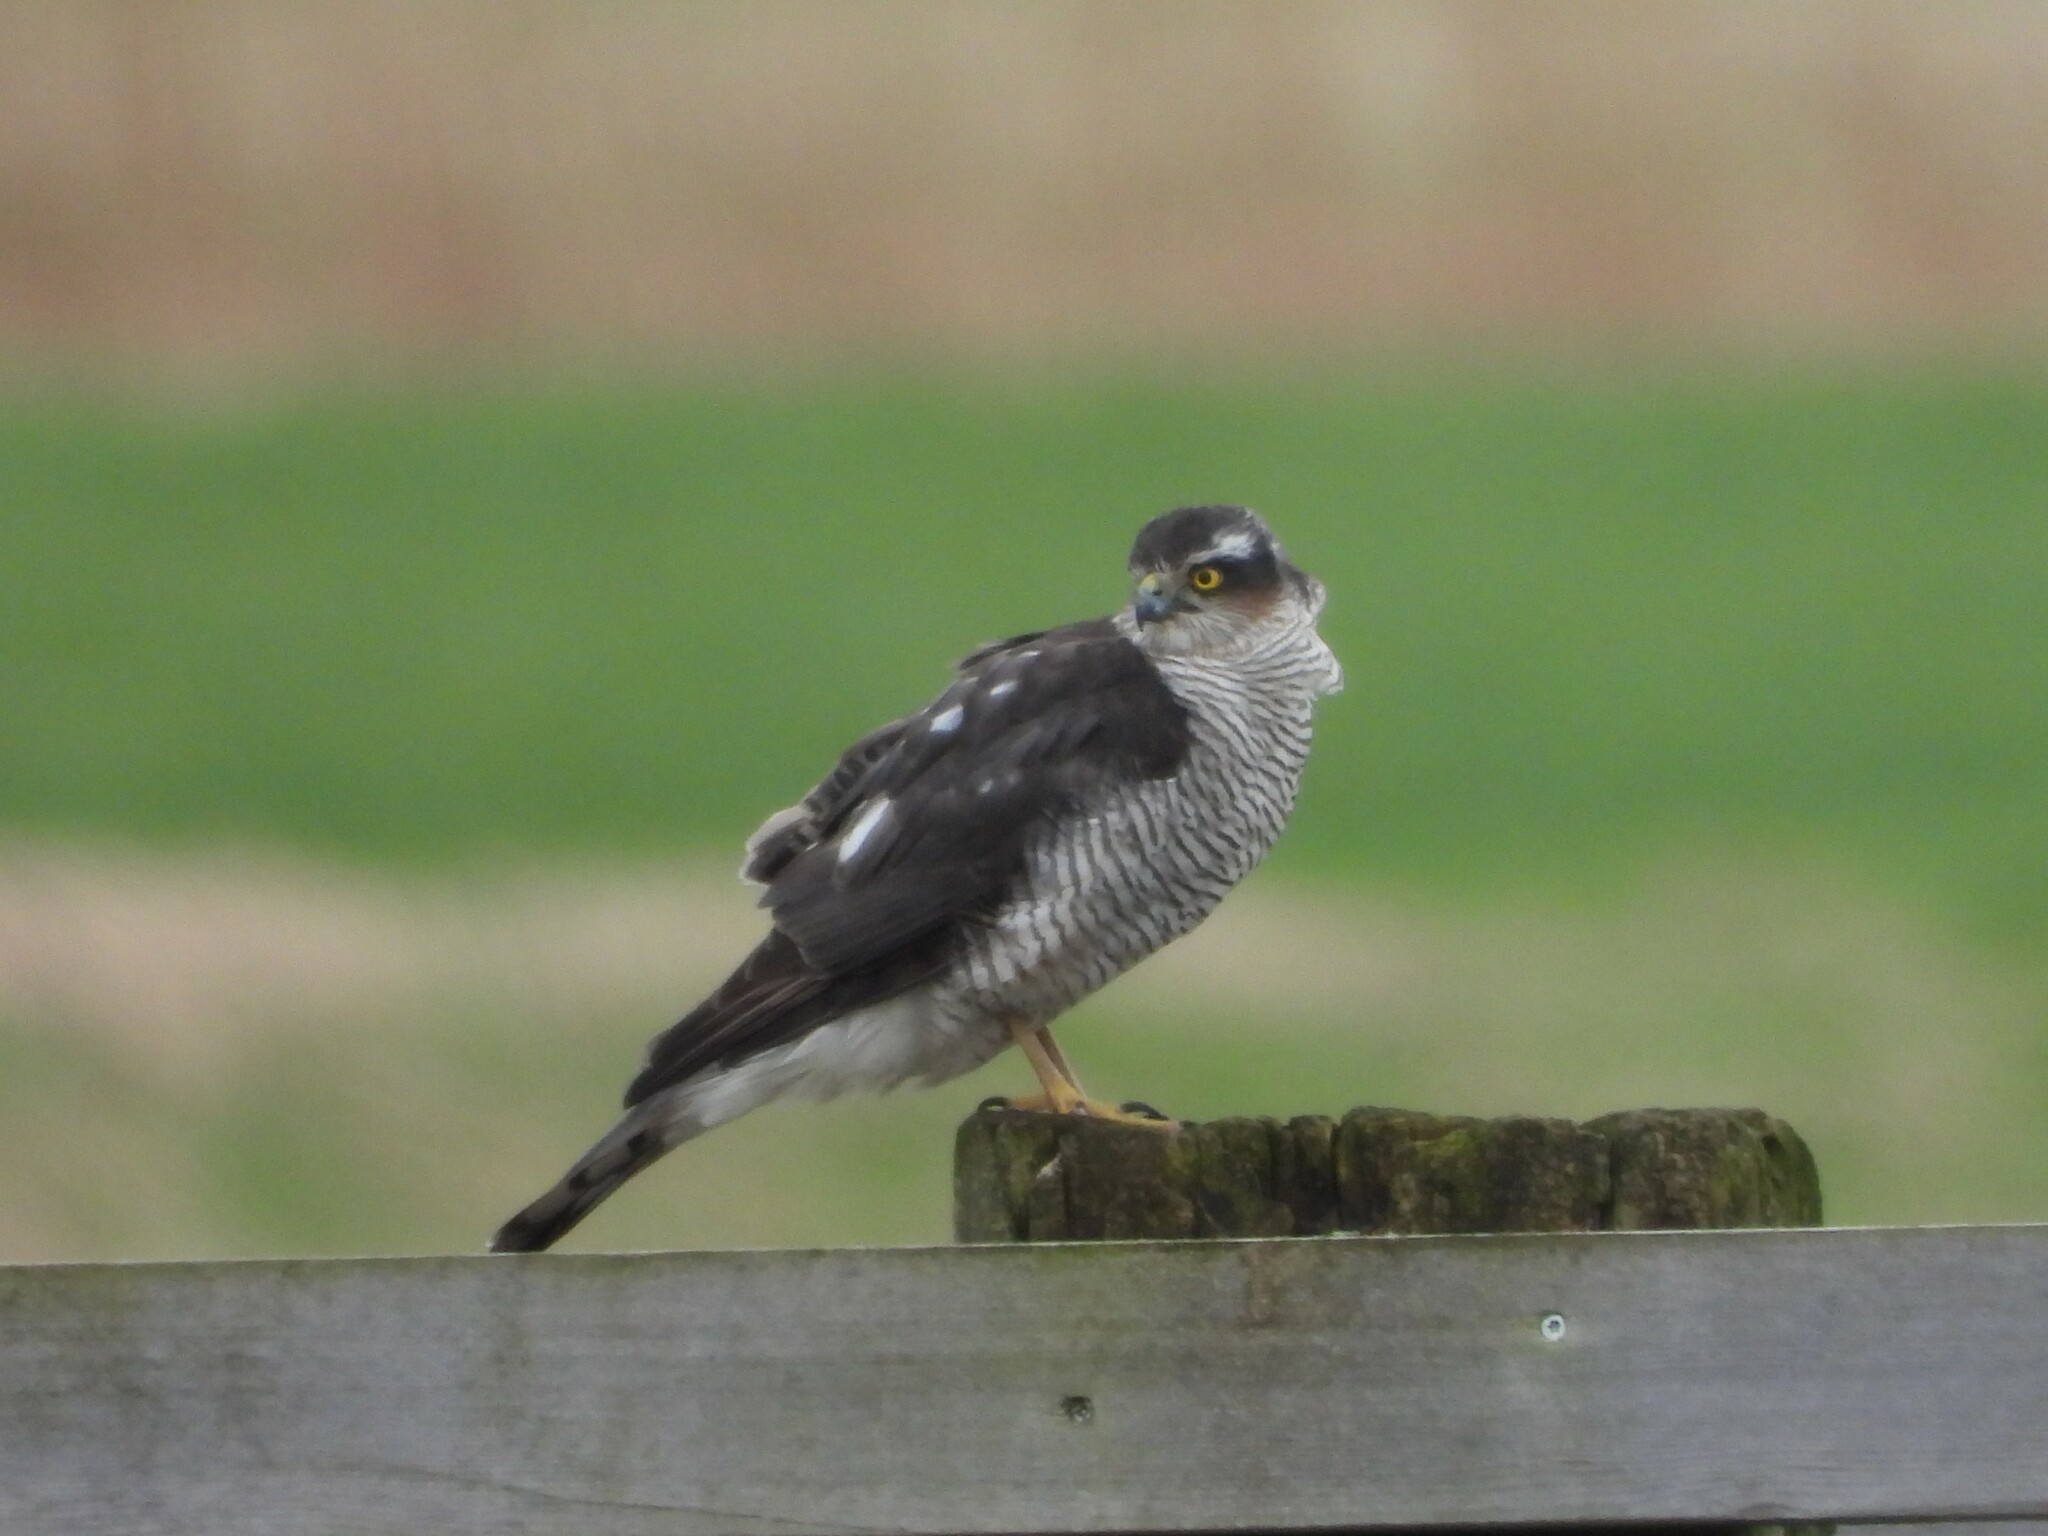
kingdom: Animalia
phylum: Chordata
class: Aves
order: Accipitriformes
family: Accipitridae
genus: Accipiter
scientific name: Accipiter nisus
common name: Eurasian sparrowhawk
